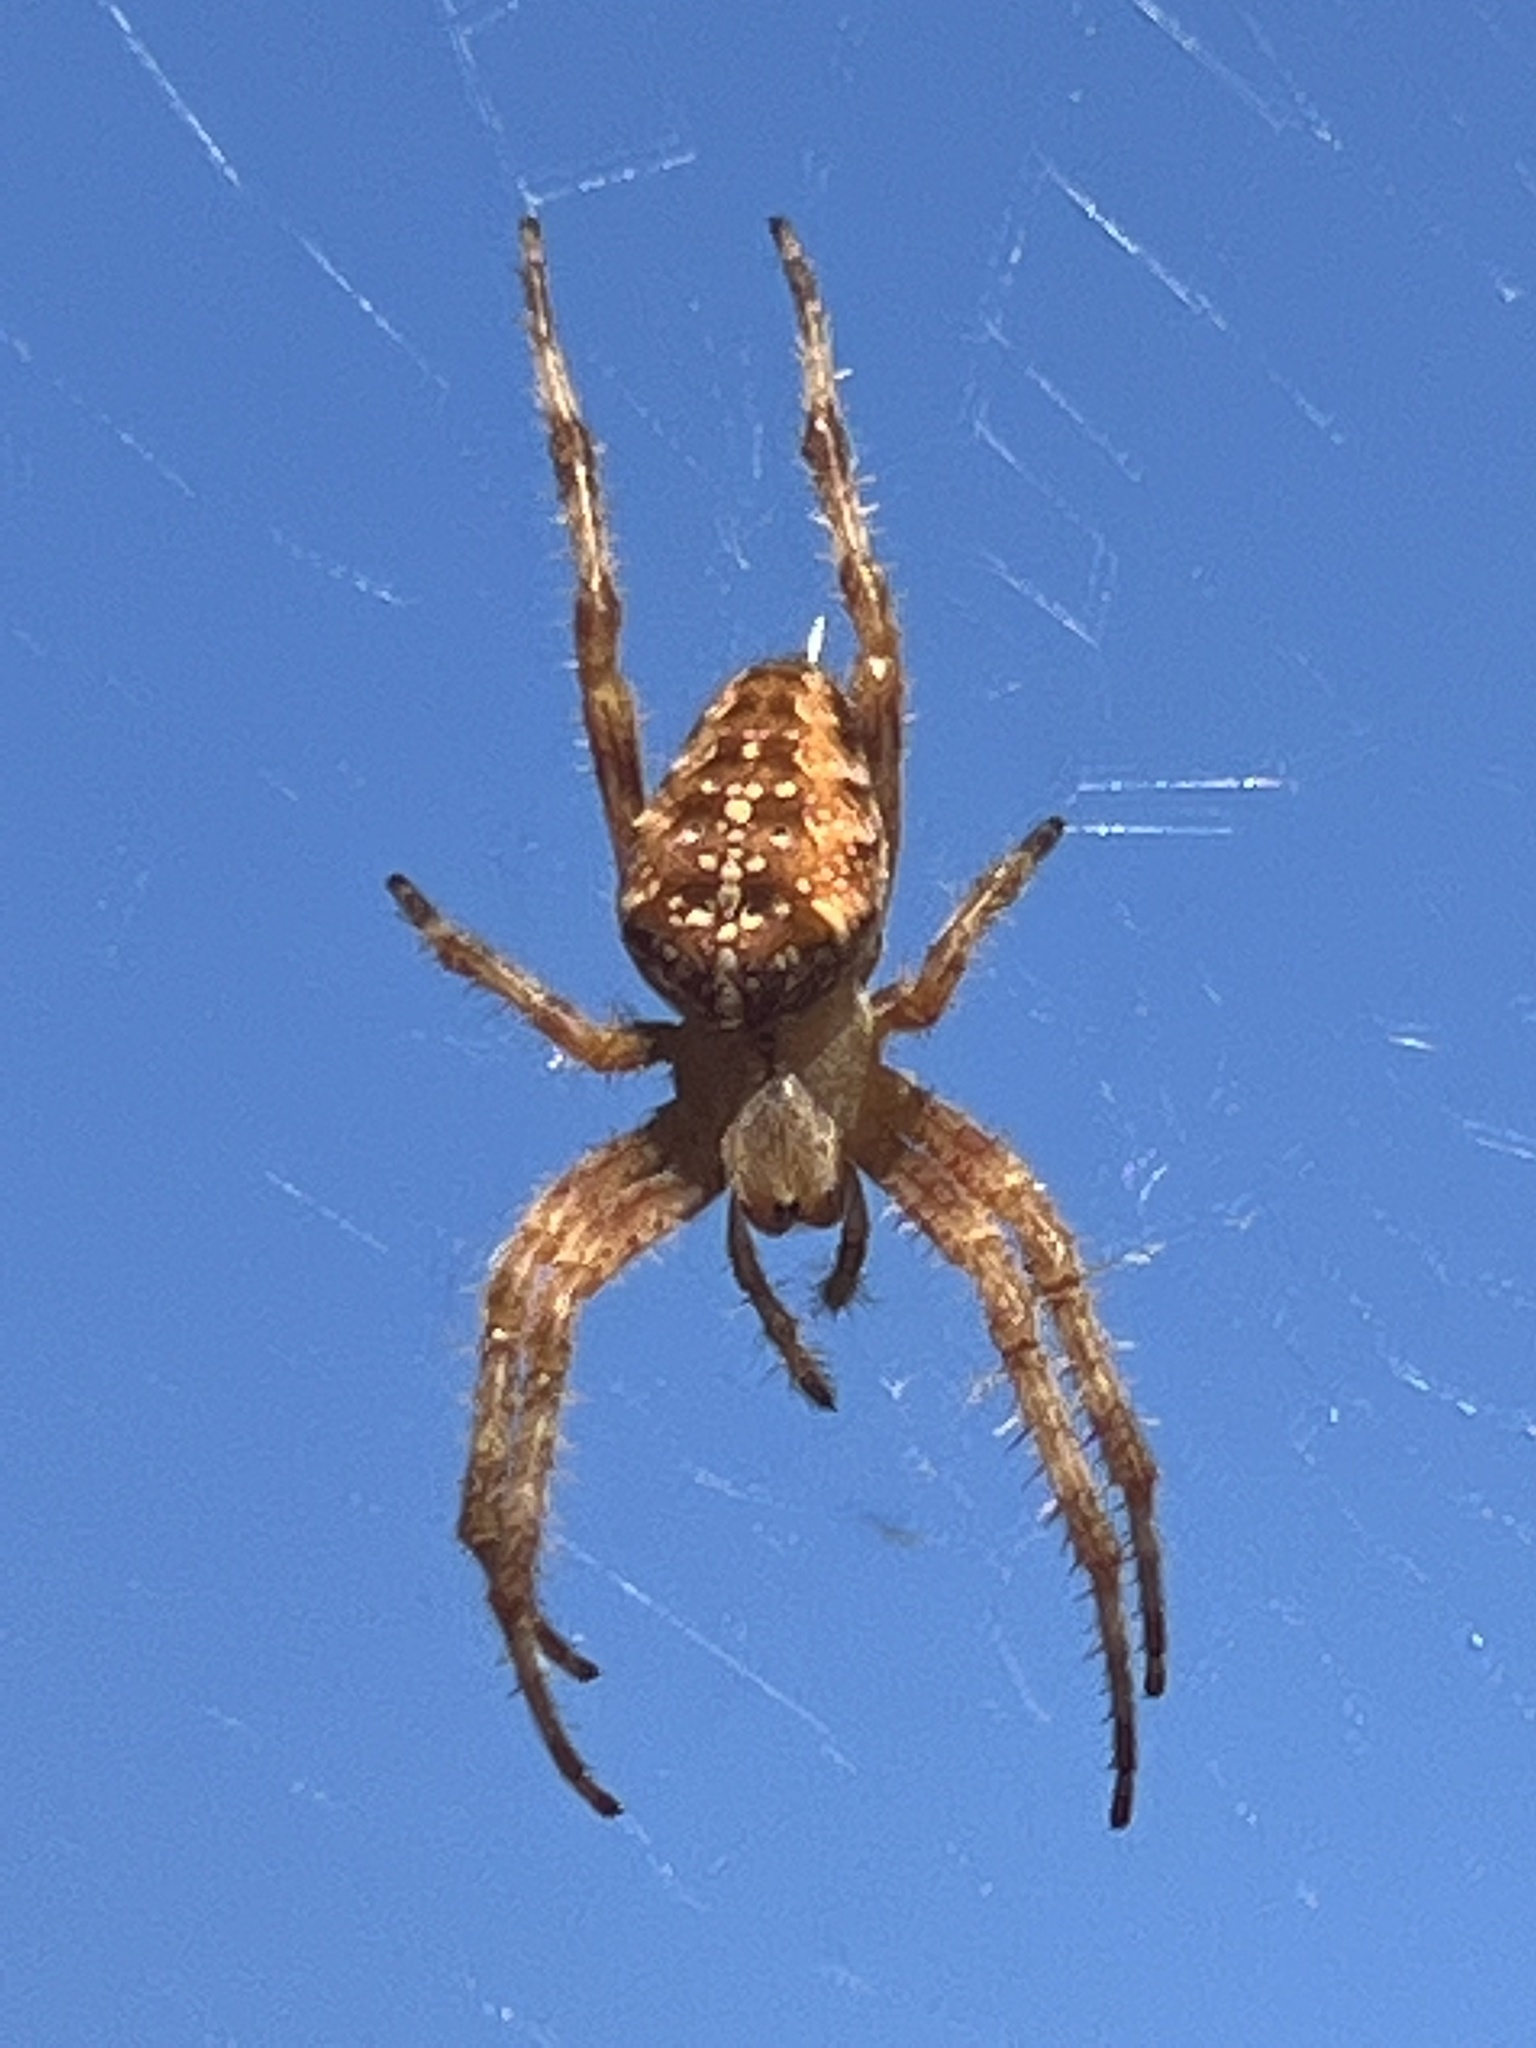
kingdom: Animalia
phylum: Arthropoda
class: Arachnida
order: Araneae
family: Araneidae
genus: Araneus
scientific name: Araneus diadematus
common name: Cross orbweaver
